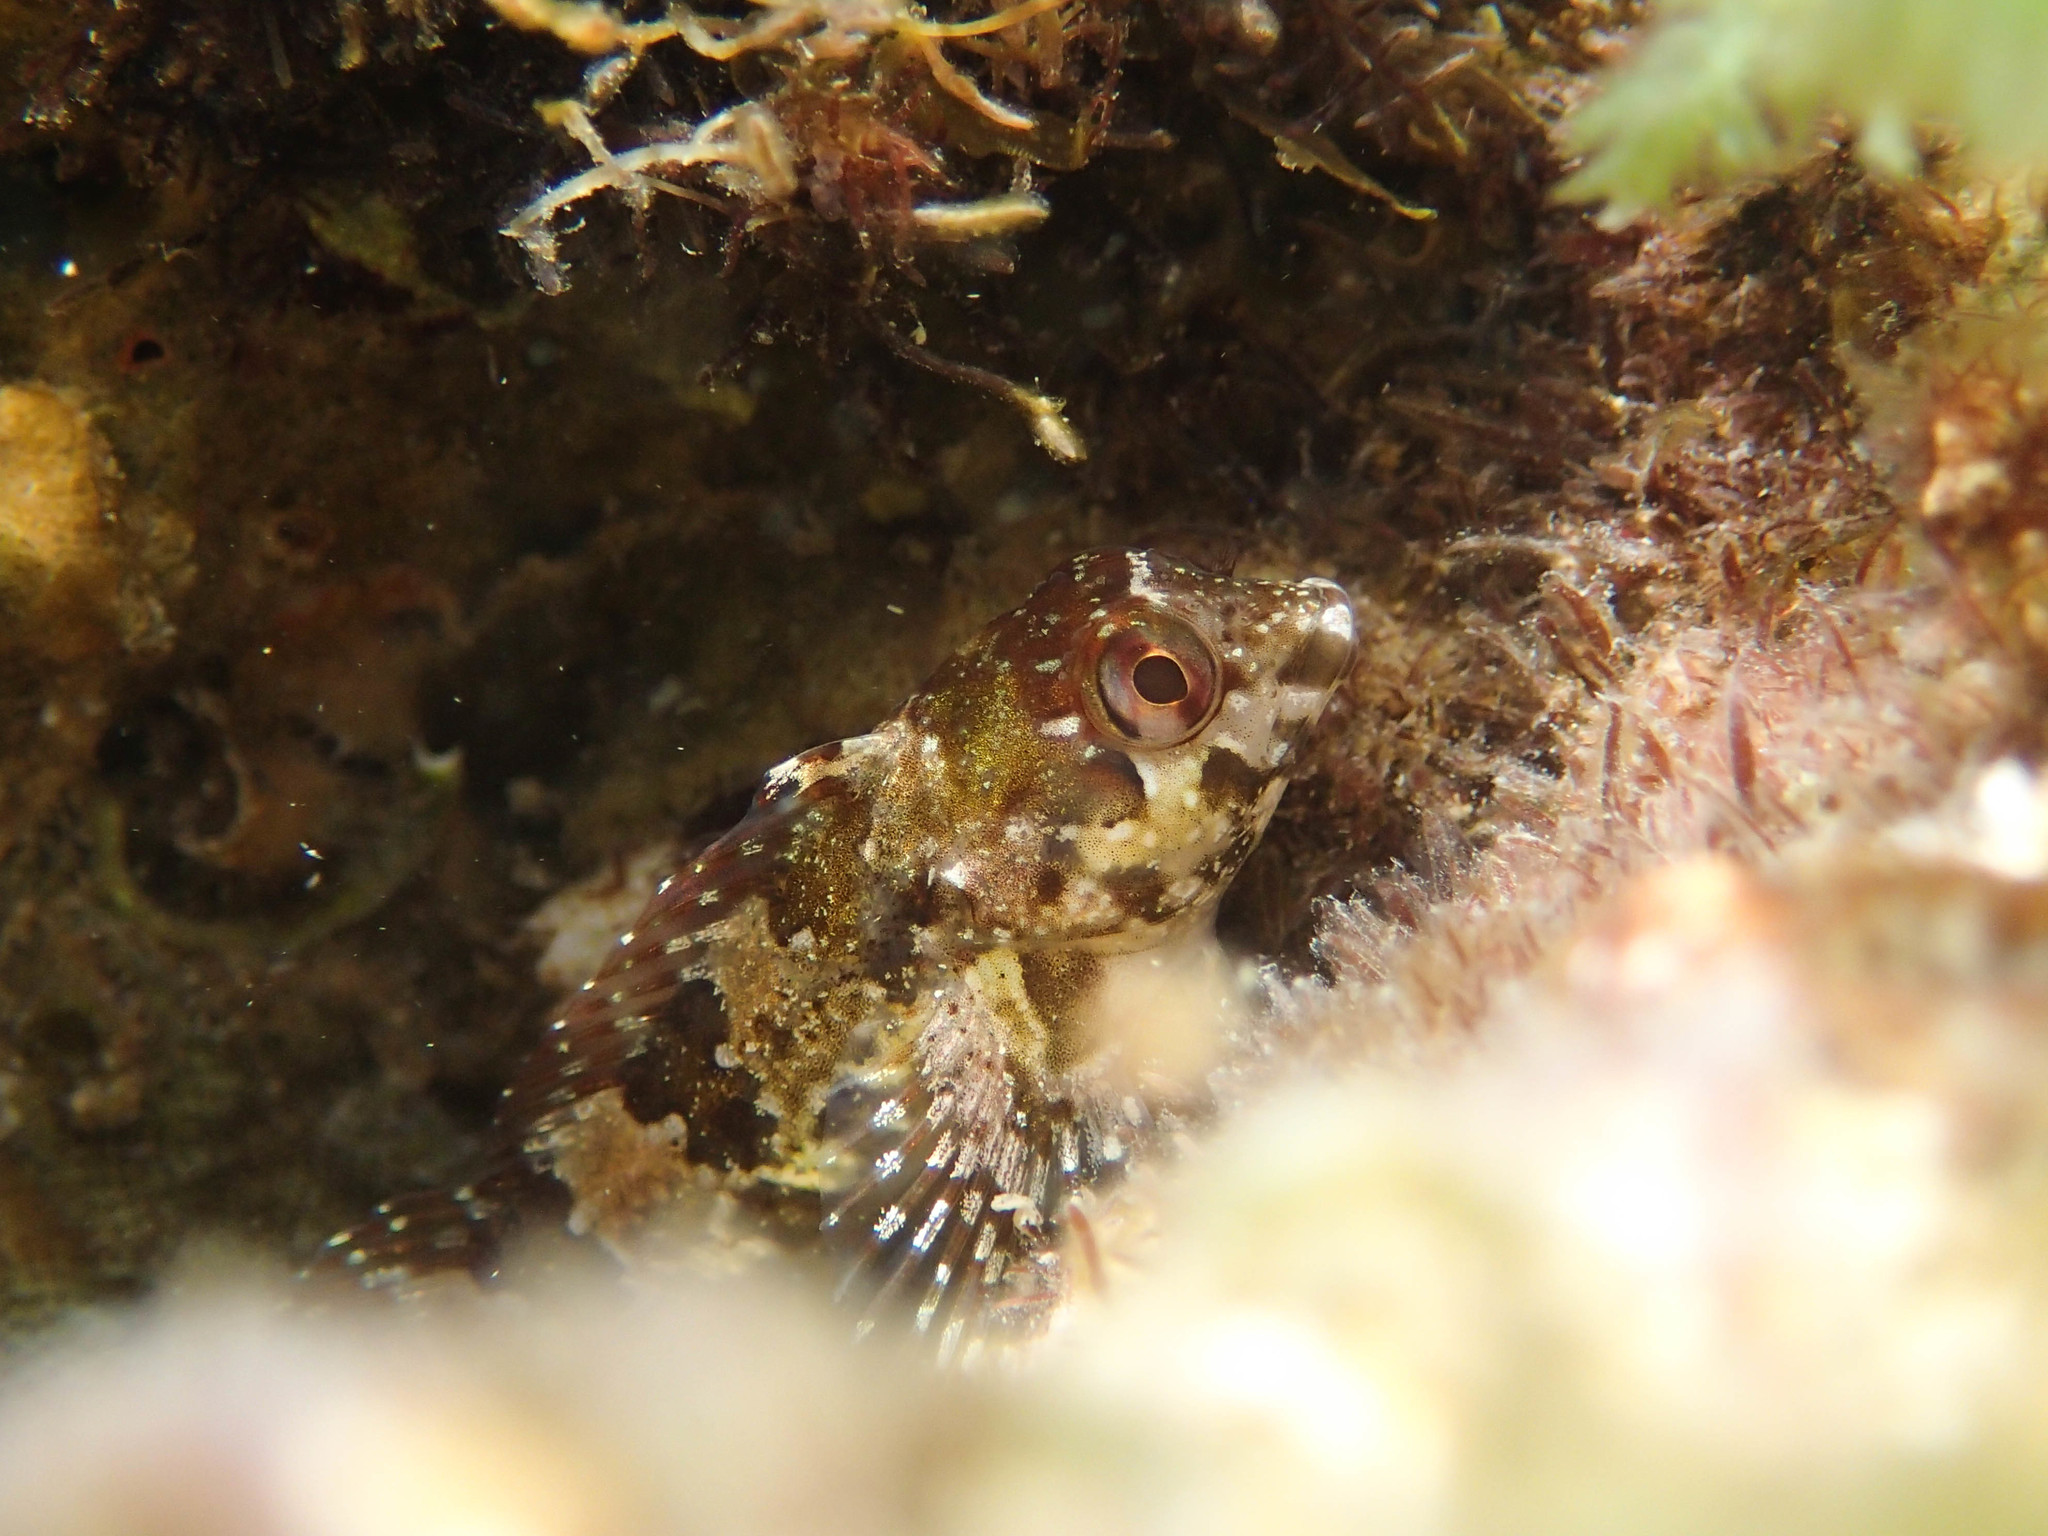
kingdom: Animalia
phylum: Chordata
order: Perciformes
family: Blenniidae
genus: Lipophrys
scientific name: Lipophrys trigloides
